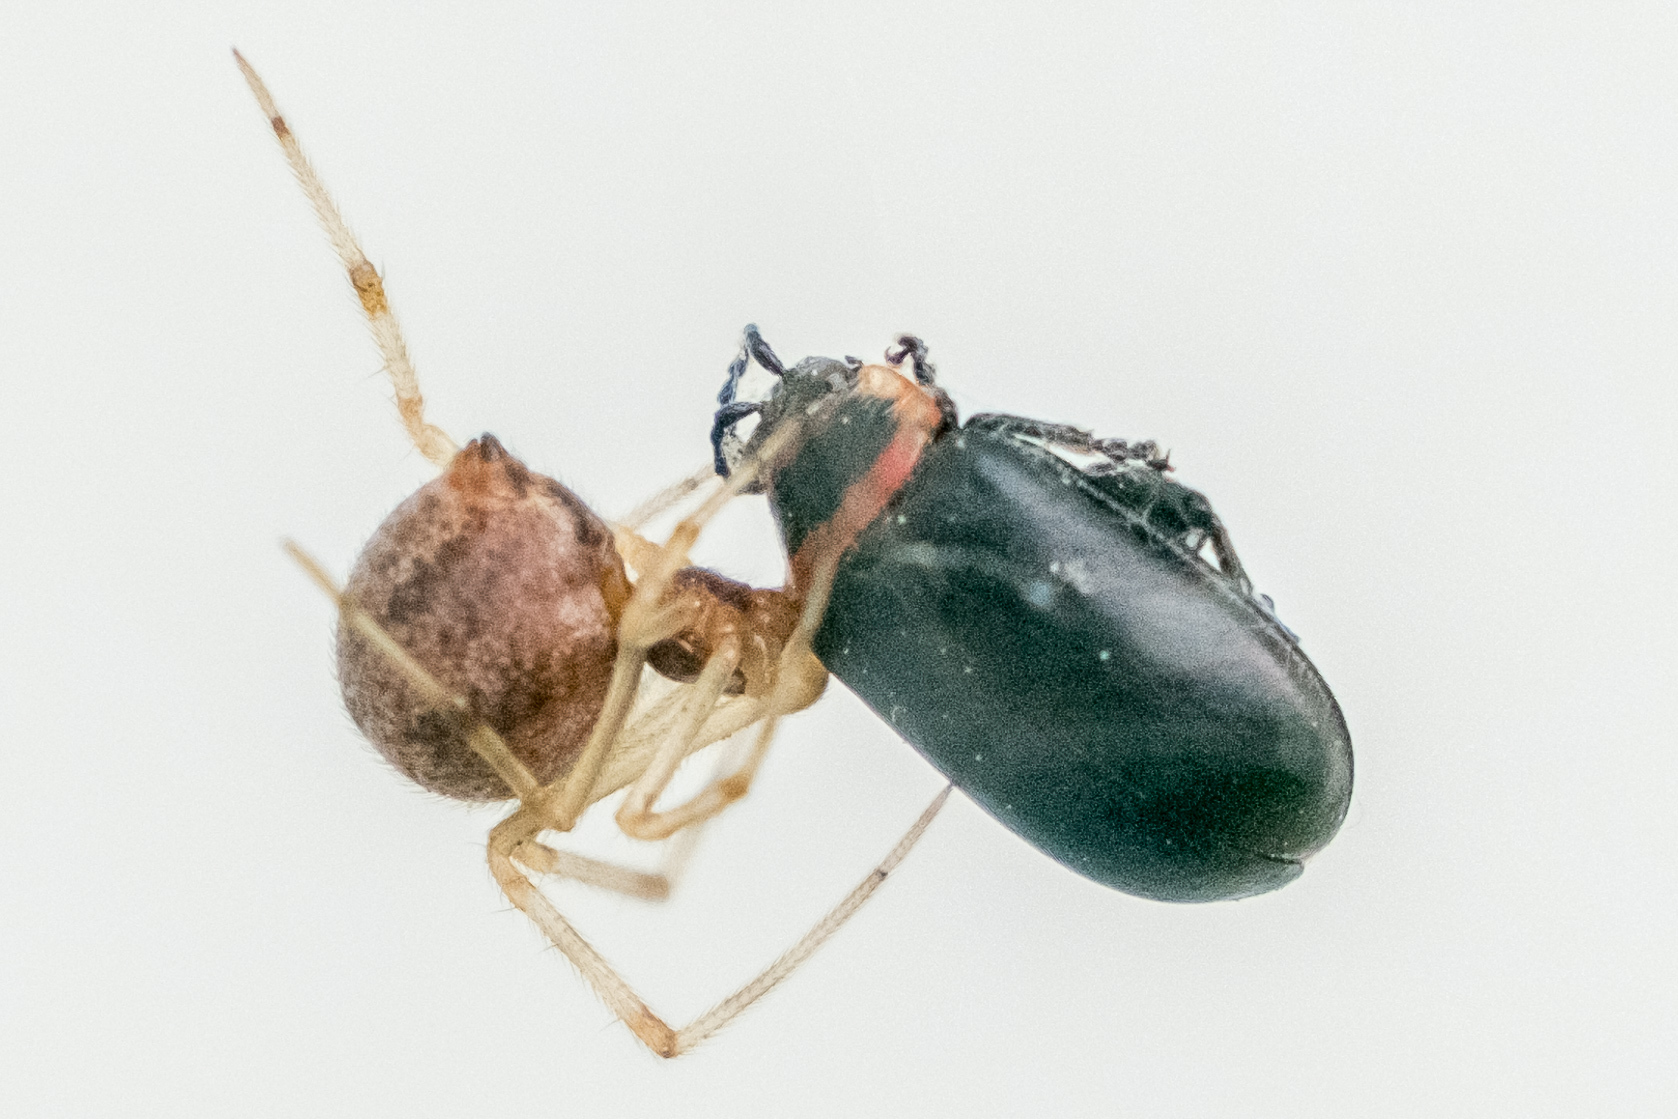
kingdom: Animalia
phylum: Arthropoda
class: Insecta
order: Coleoptera
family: Chrysomelidae
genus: Kuschelina
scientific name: Kuschelina vians
